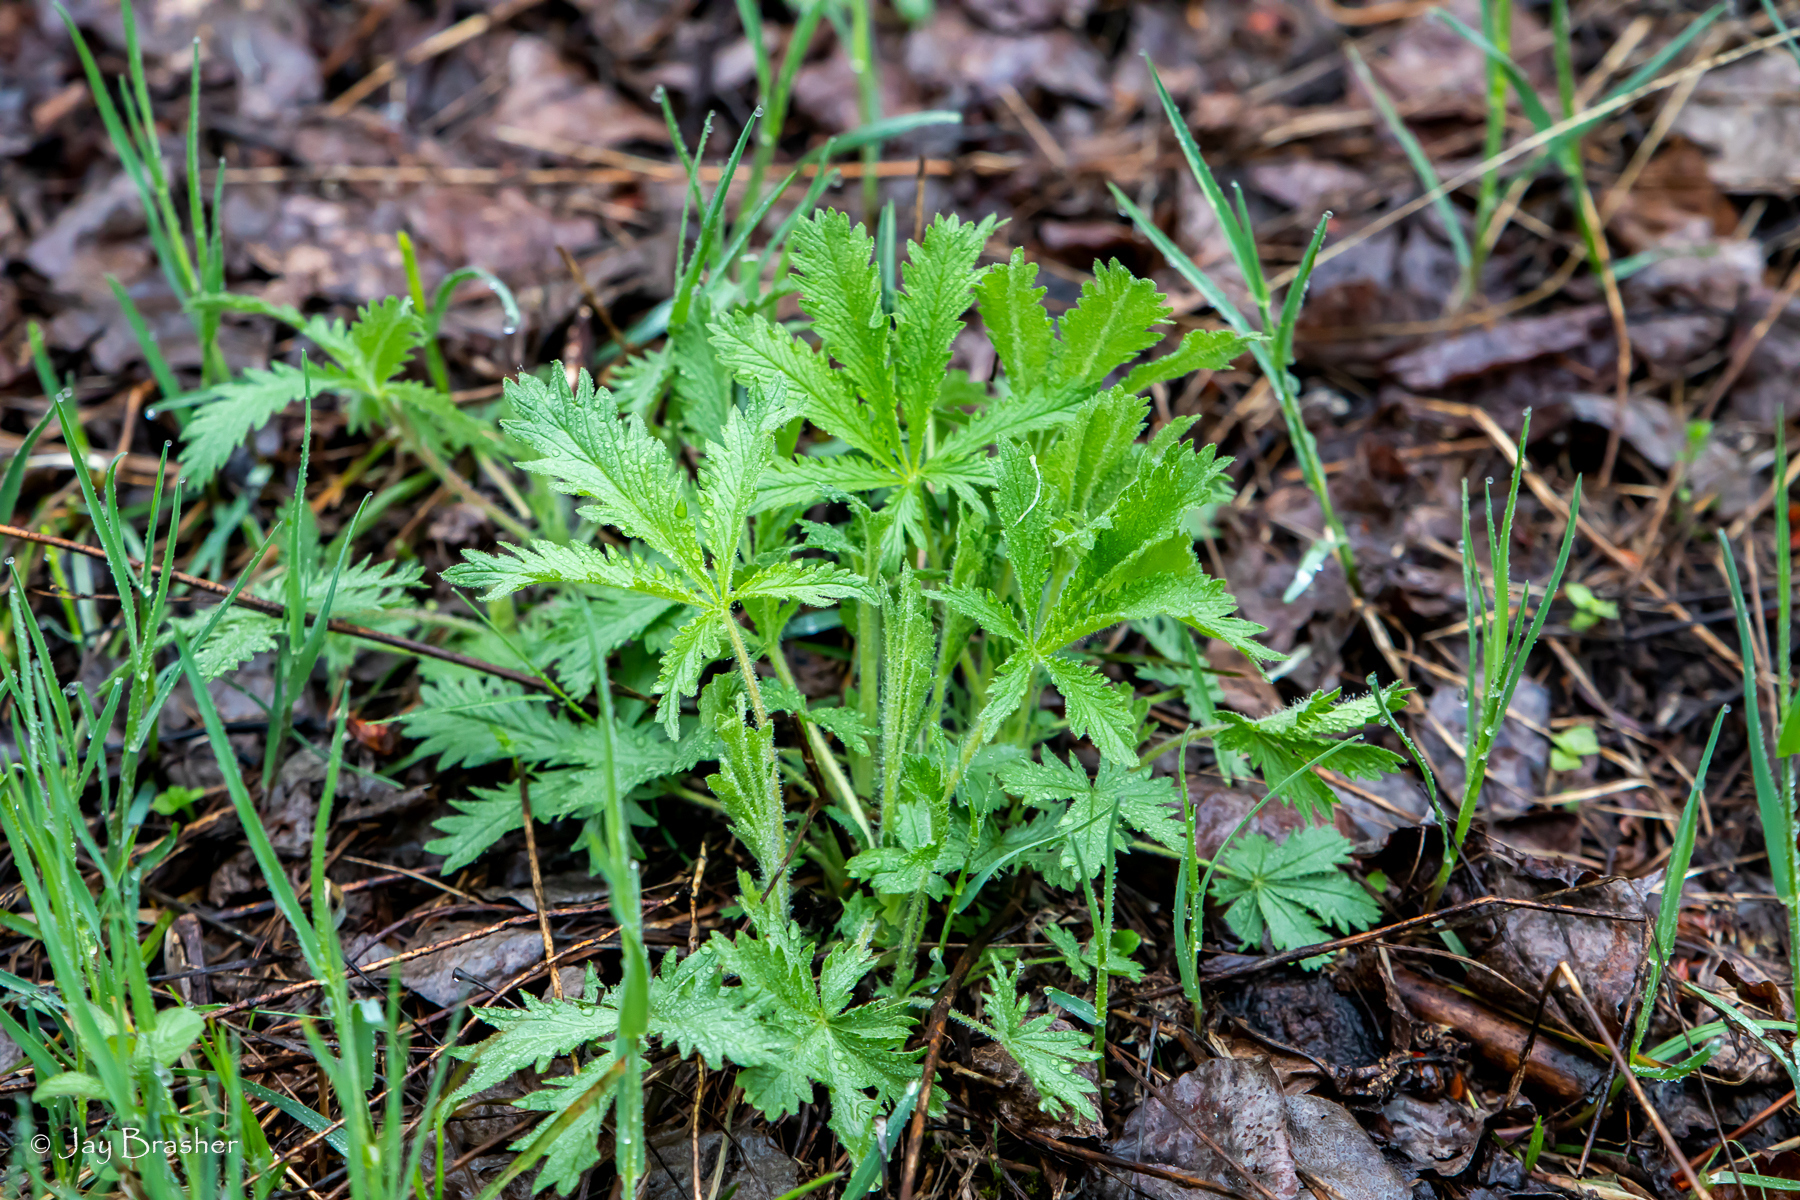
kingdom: Plantae
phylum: Tracheophyta
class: Magnoliopsida
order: Rosales
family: Rosaceae
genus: Potentilla
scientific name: Potentilla recta
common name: Sulphur cinquefoil
